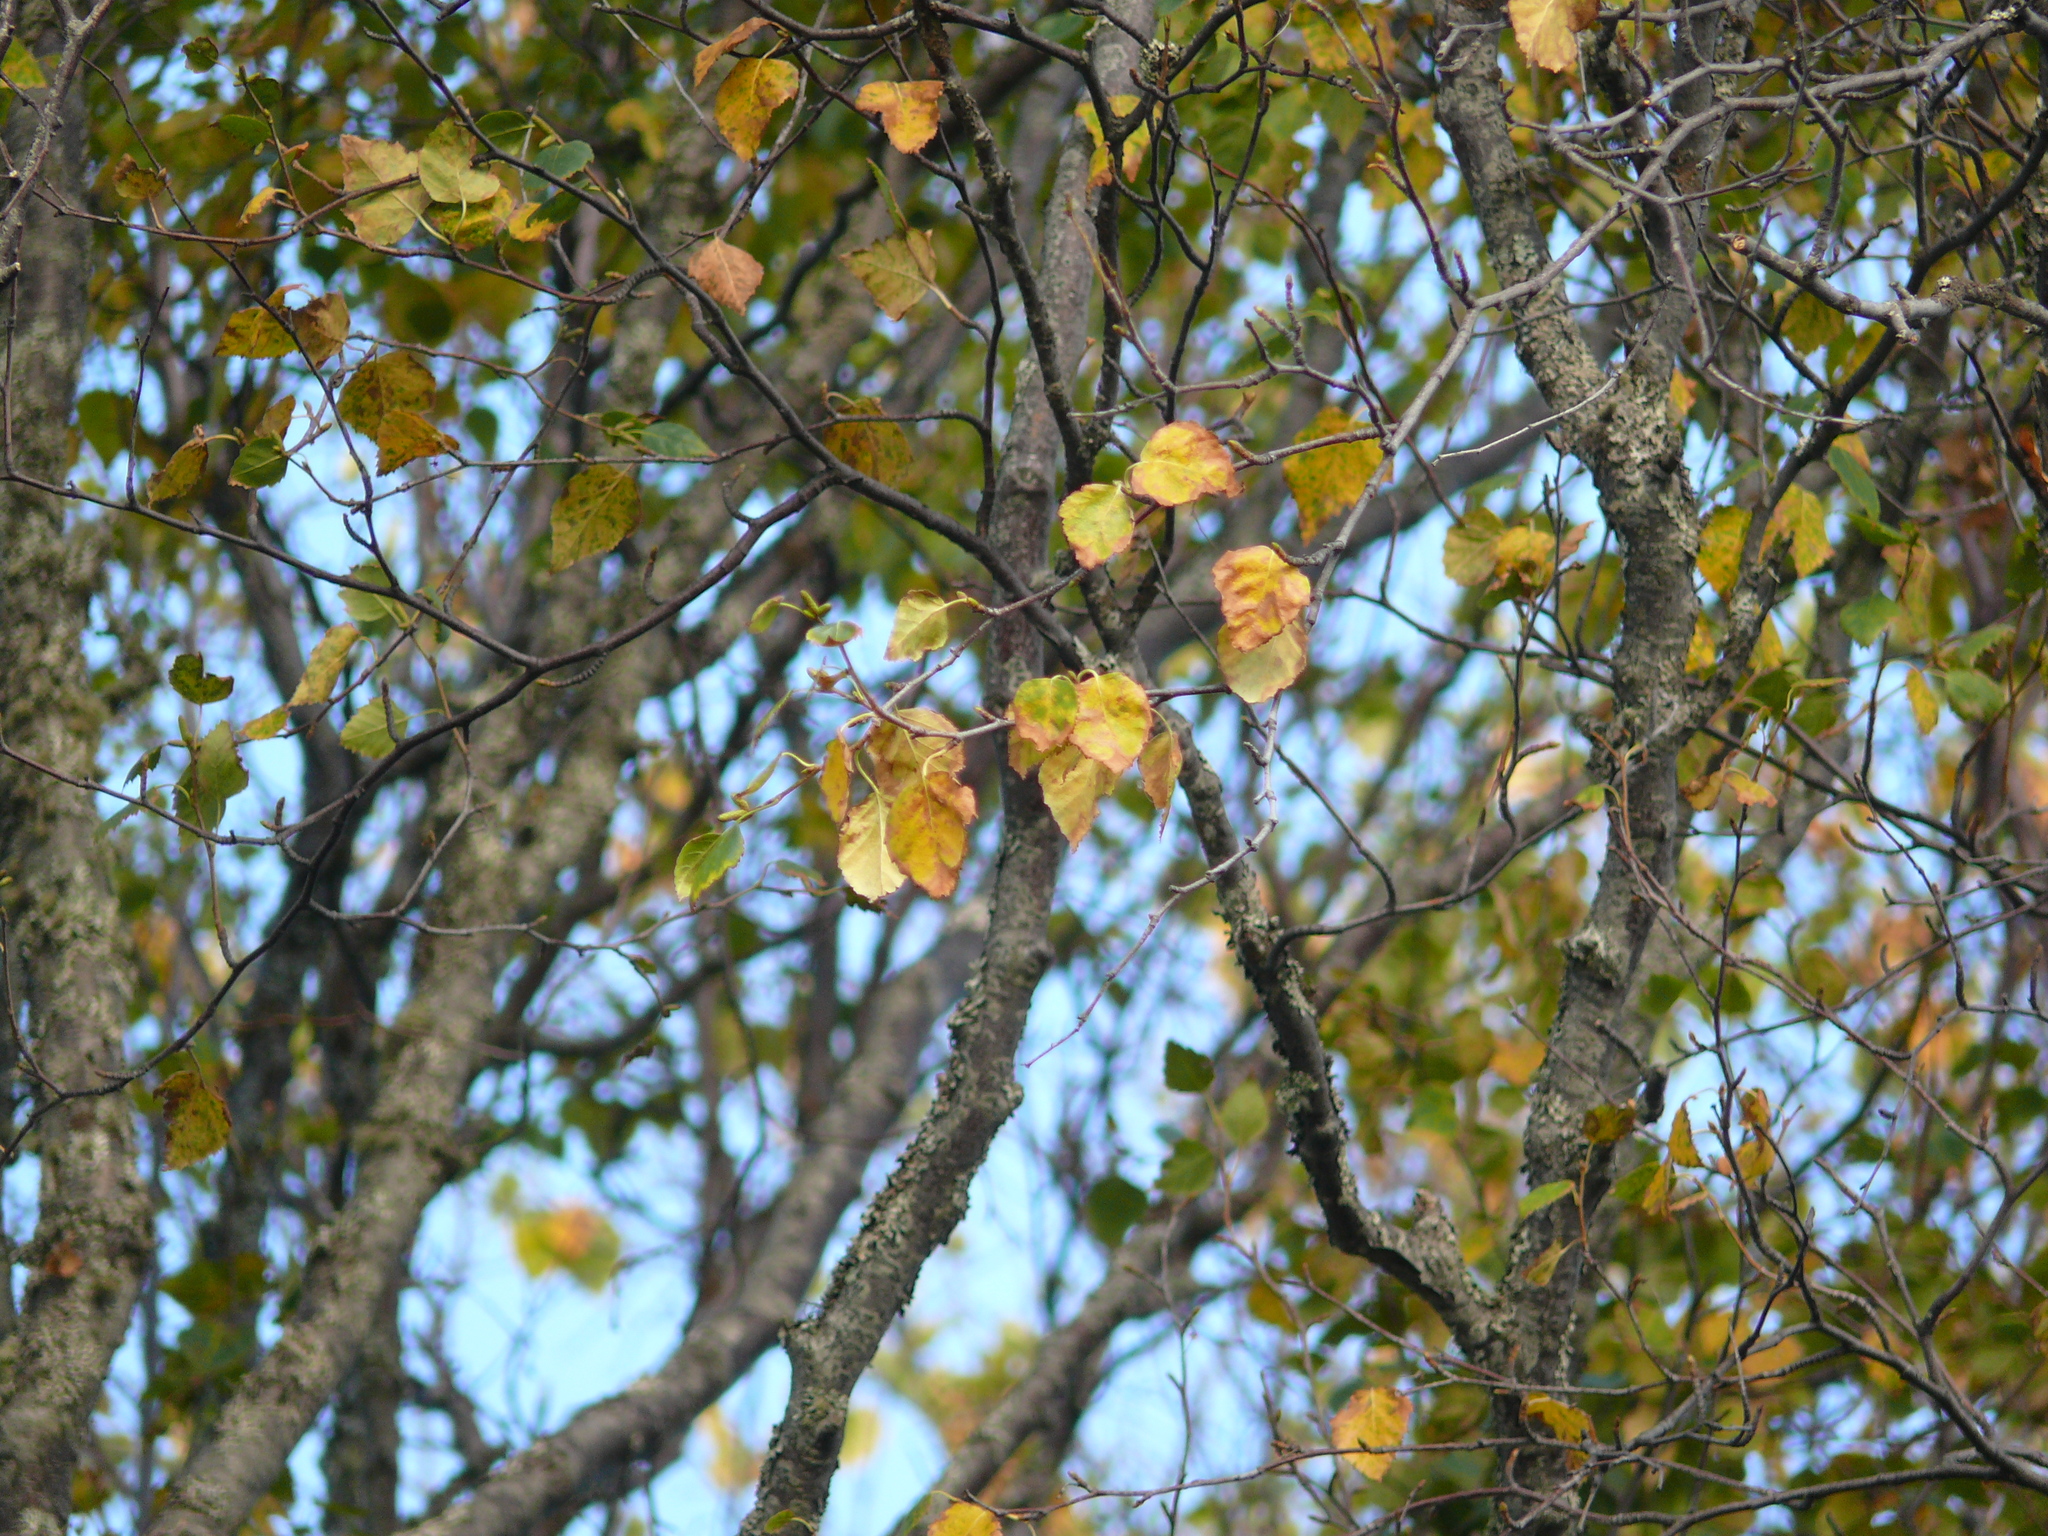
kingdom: Plantae
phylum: Tracheophyta
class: Magnoliopsida
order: Fagales
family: Betulaceae
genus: Betula
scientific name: Betula papyrifera
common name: Paper birch
